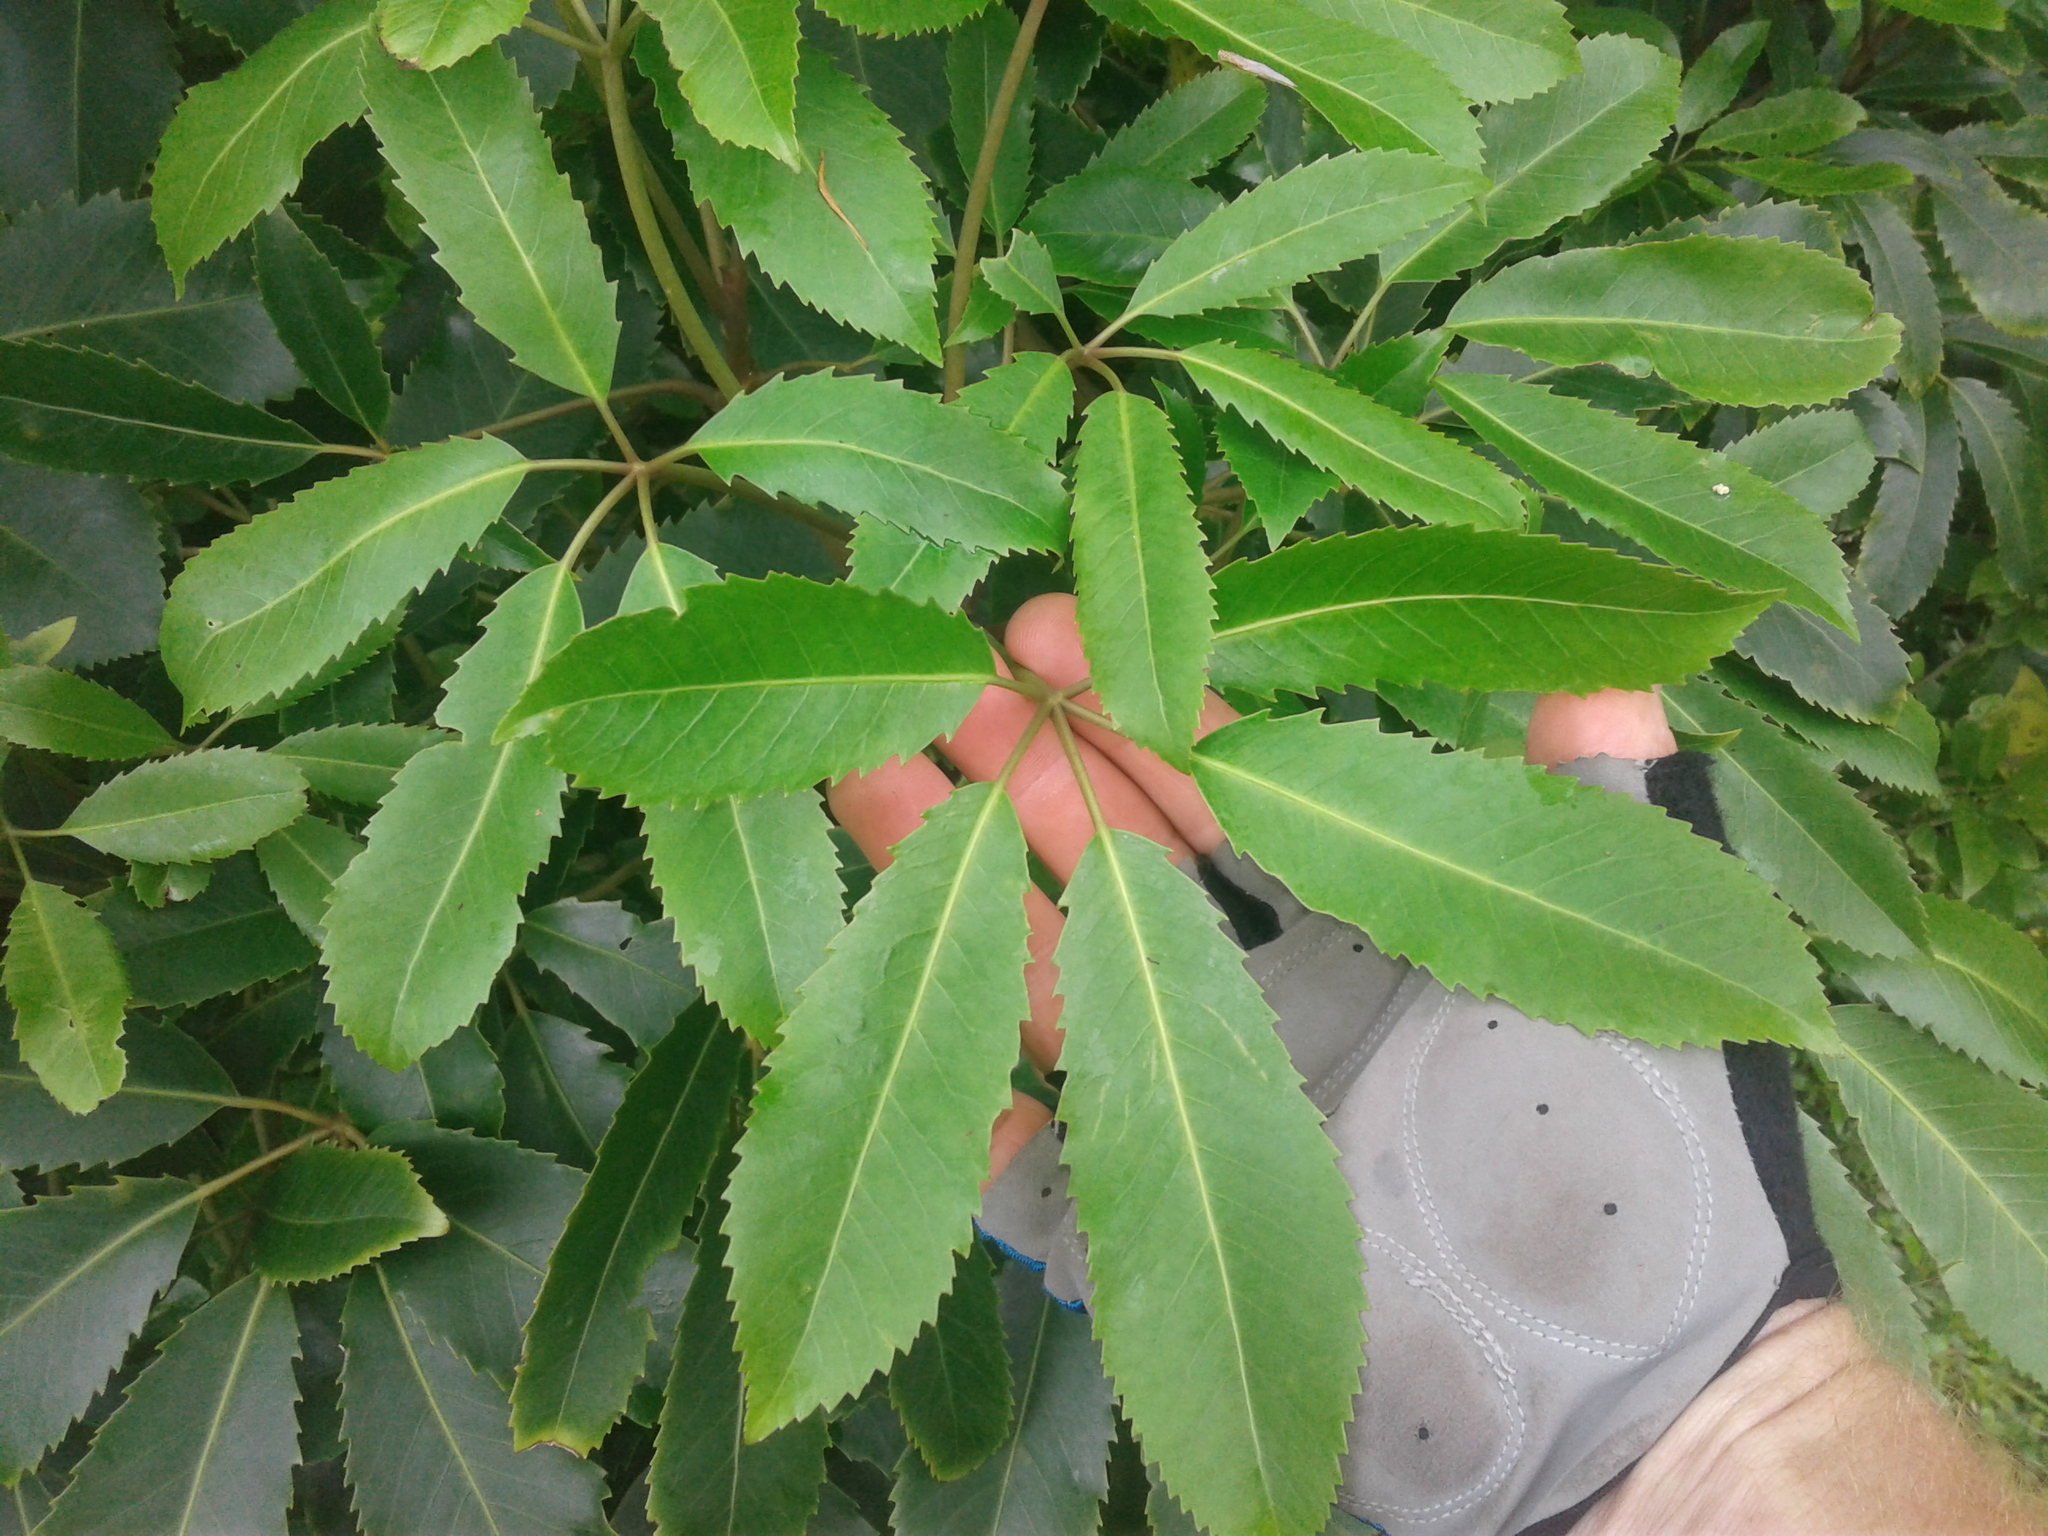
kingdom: Plantae
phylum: Tracheophyta
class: Magnoliopsida
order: Apiales
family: Araliaceae
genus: Neopanax
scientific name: Neopanax arboreus
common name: Five-fingers
